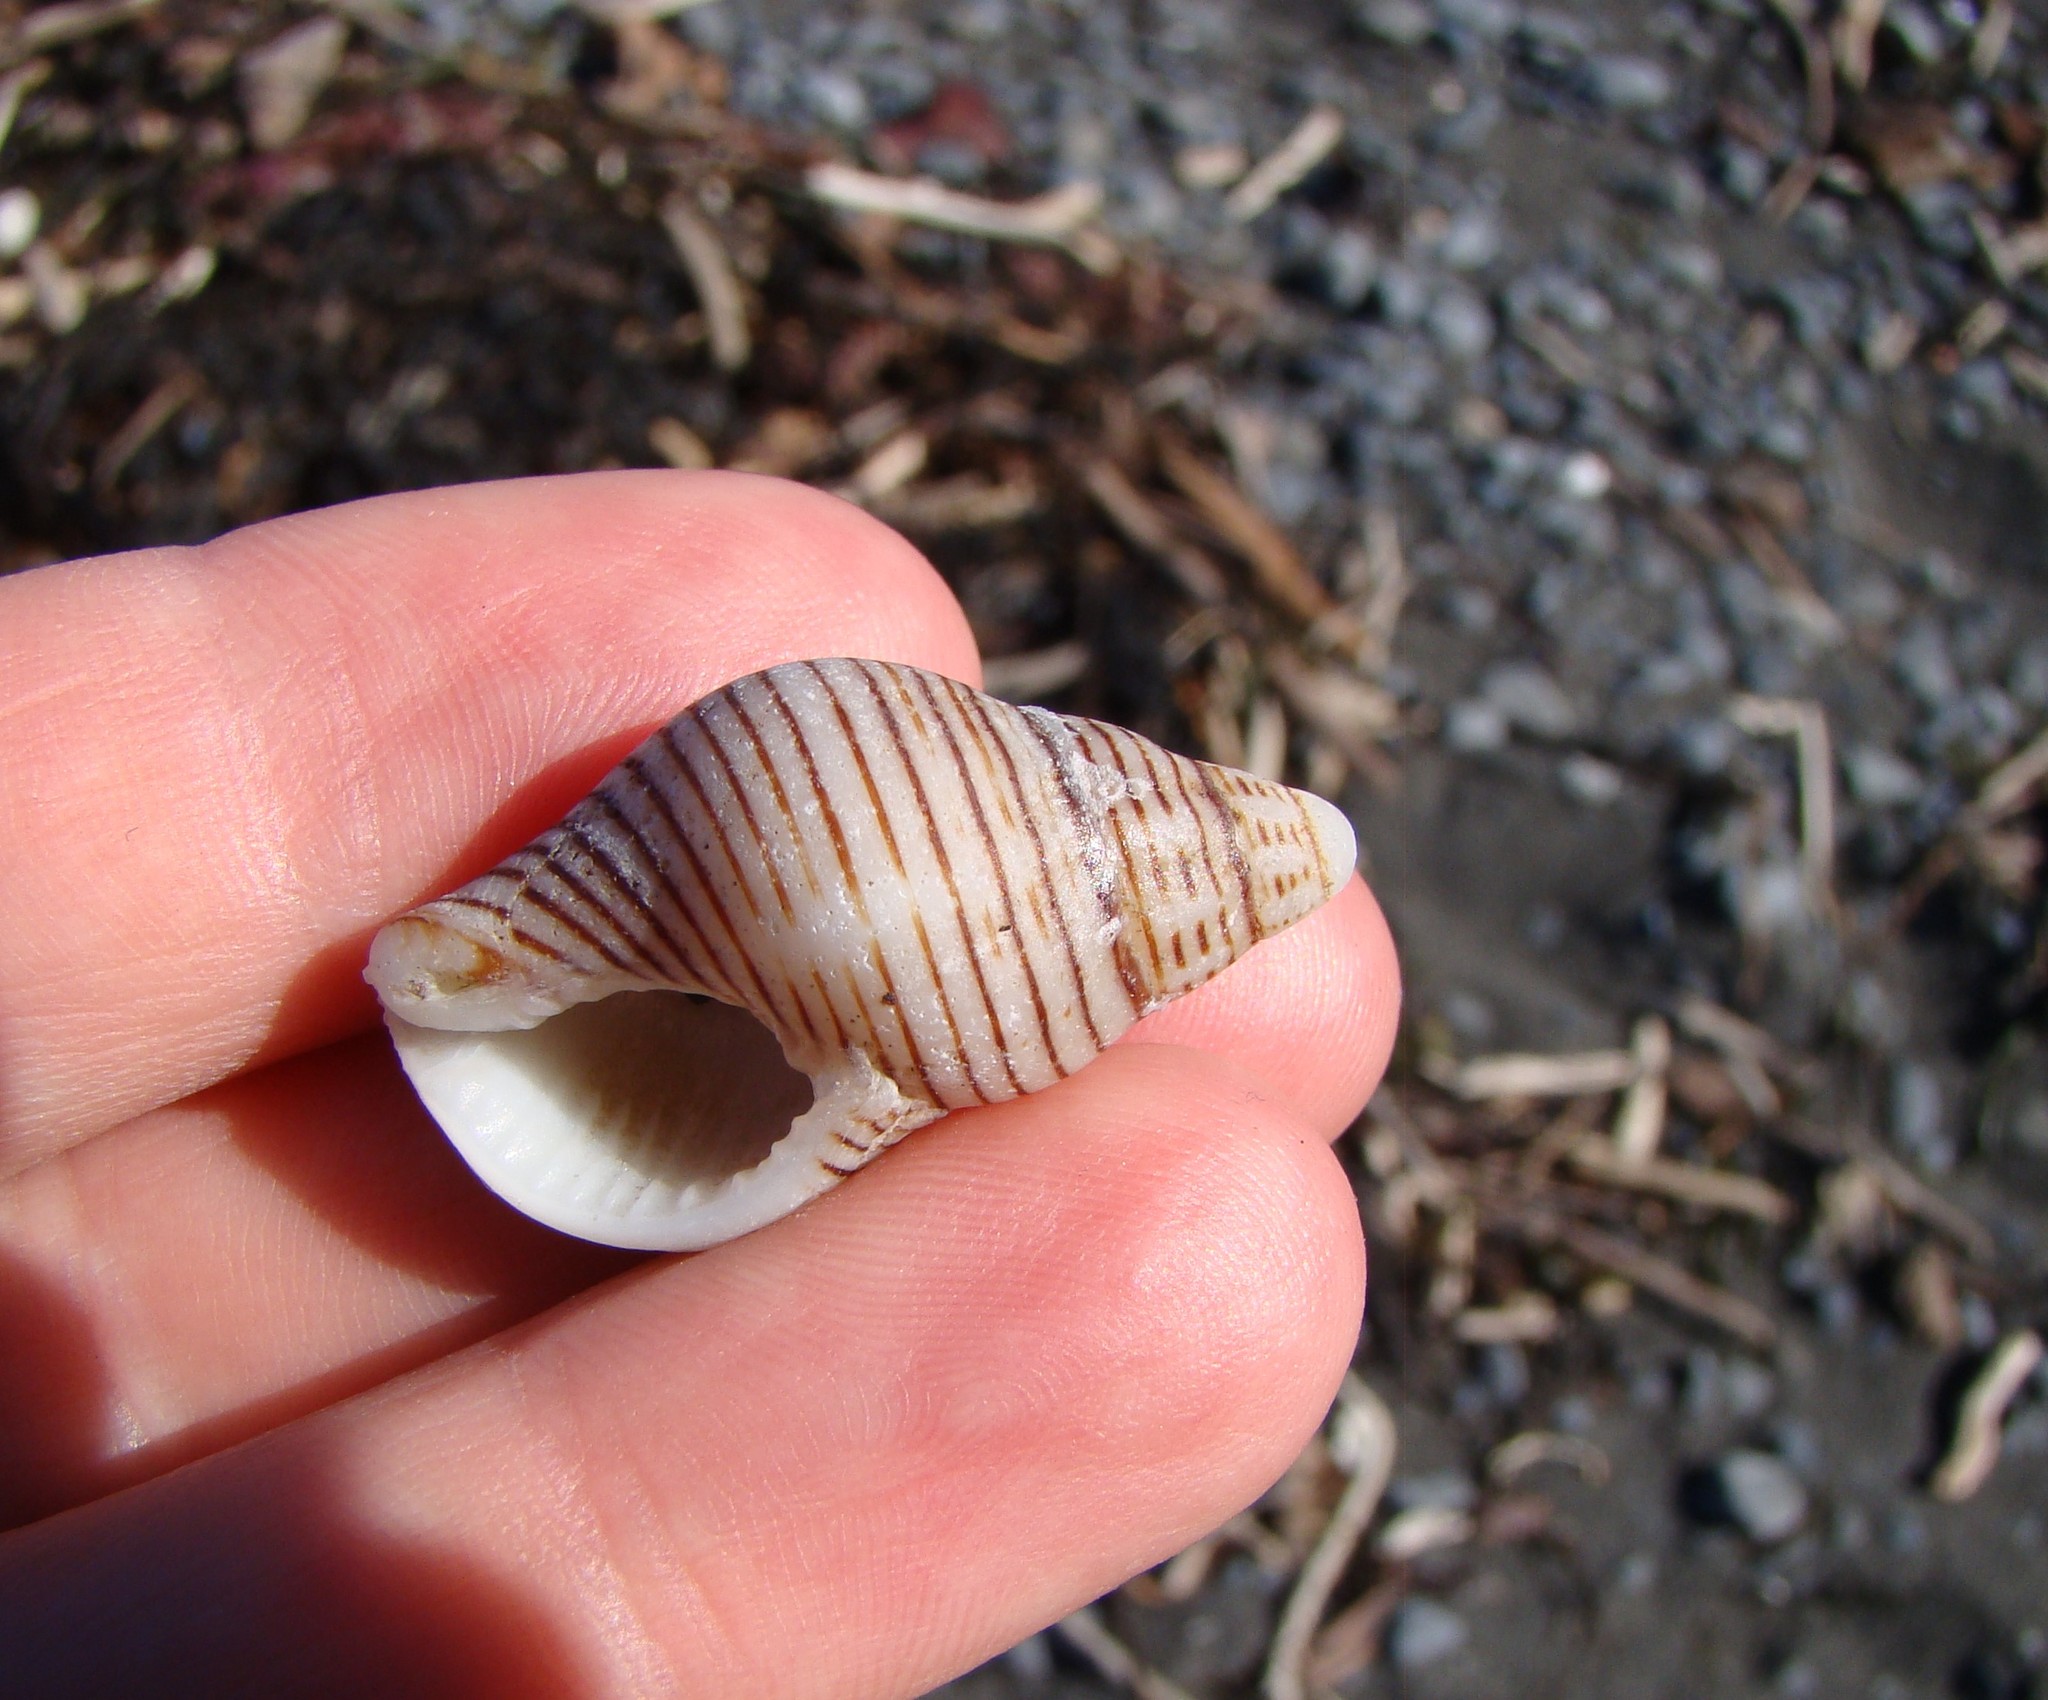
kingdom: Animalia
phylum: Mollusca
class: Gastropoda
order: Neogastropoda
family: Tudiclidae
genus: Buccinulum
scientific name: Buccinulum linea
